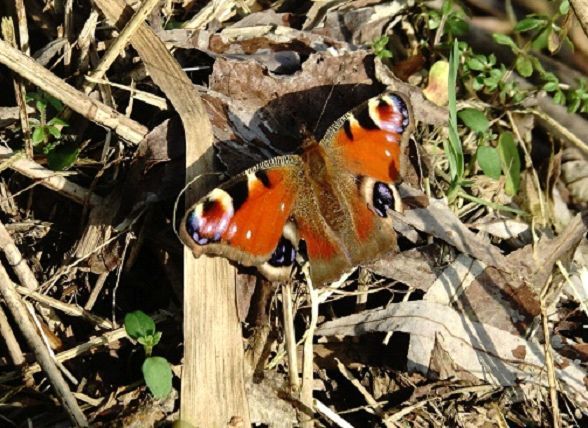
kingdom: Animalia
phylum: Arthropoda
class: Insecta
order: Lepidoptera
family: Nymphalidae
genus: Aglais
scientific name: Aglais io
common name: Peacock
